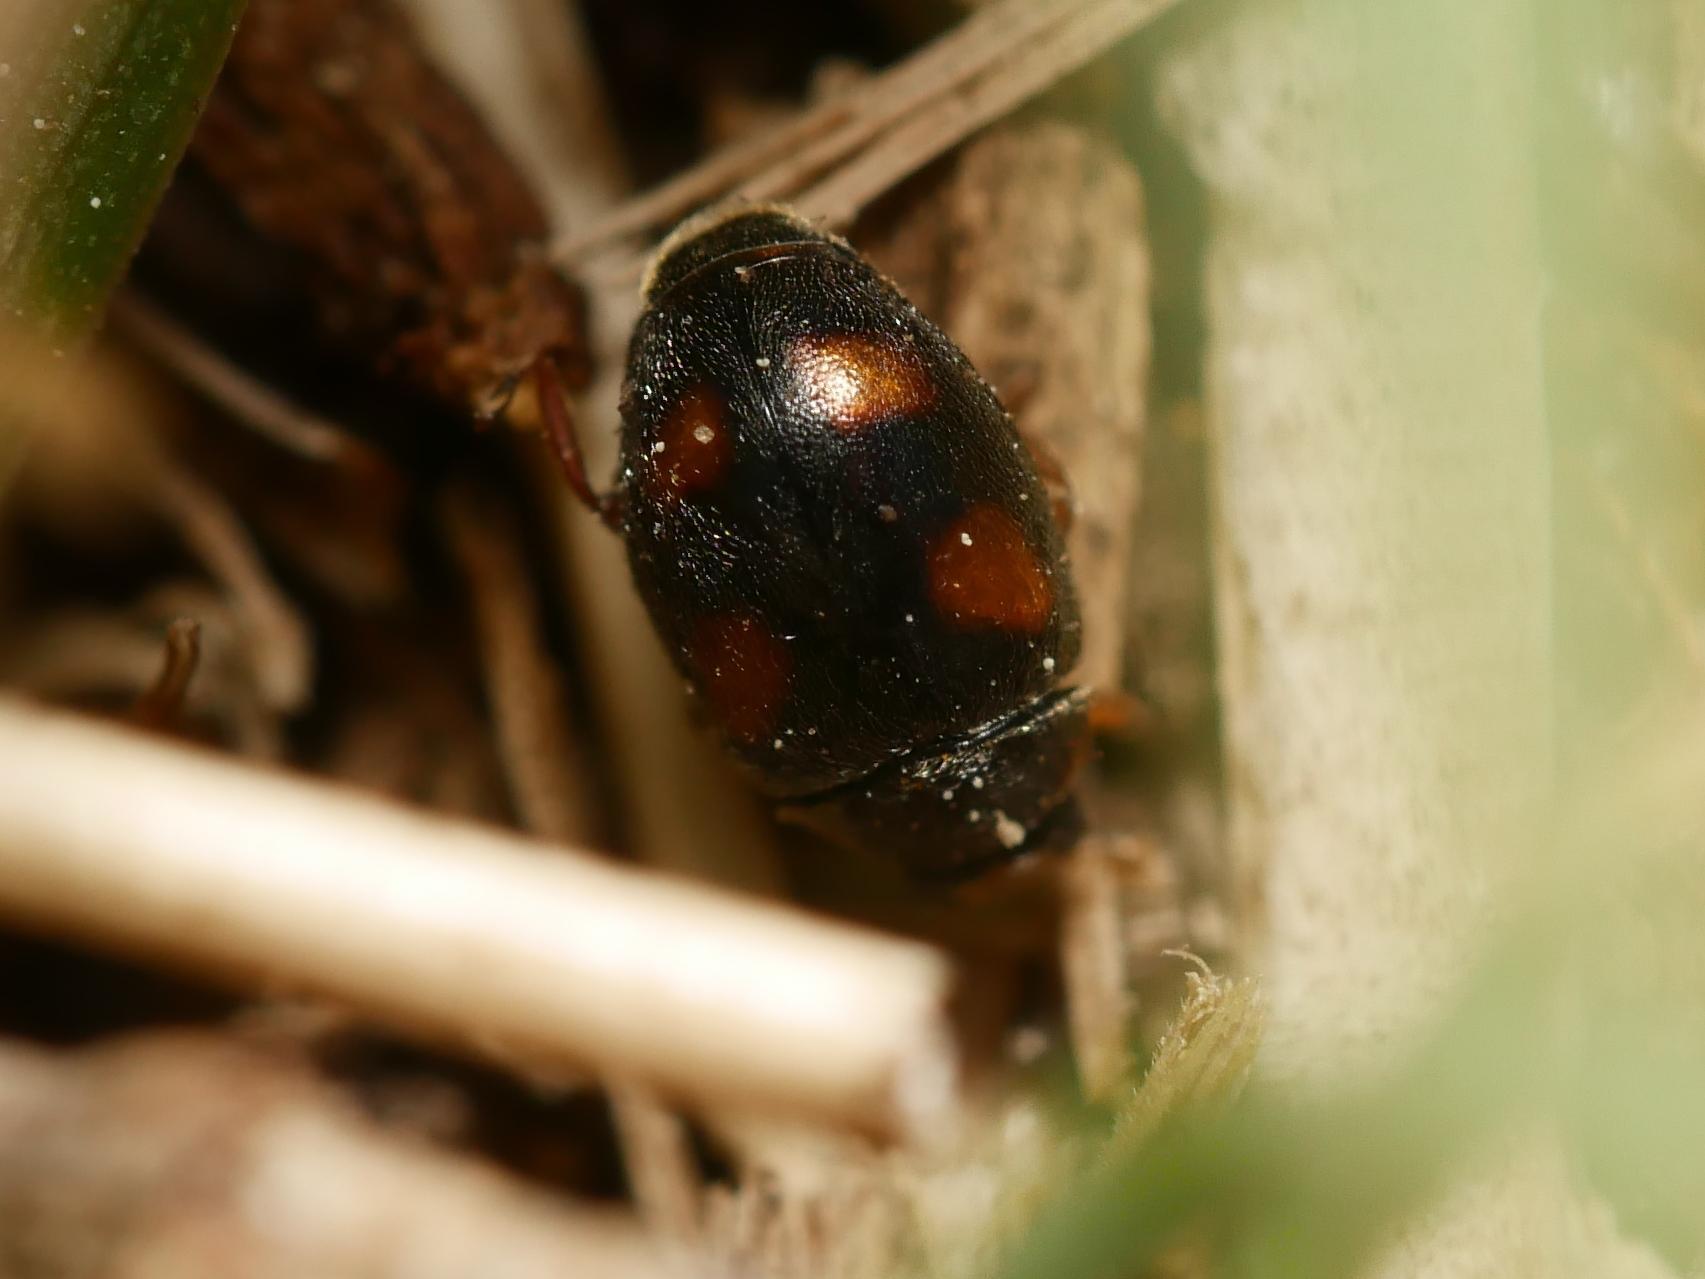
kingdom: Animalia
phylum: Arthropoda
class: Insecta
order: Coleoptera
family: Coccinellidae
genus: Scymnus
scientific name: Scymnus frontalis
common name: Ladybird beetle
